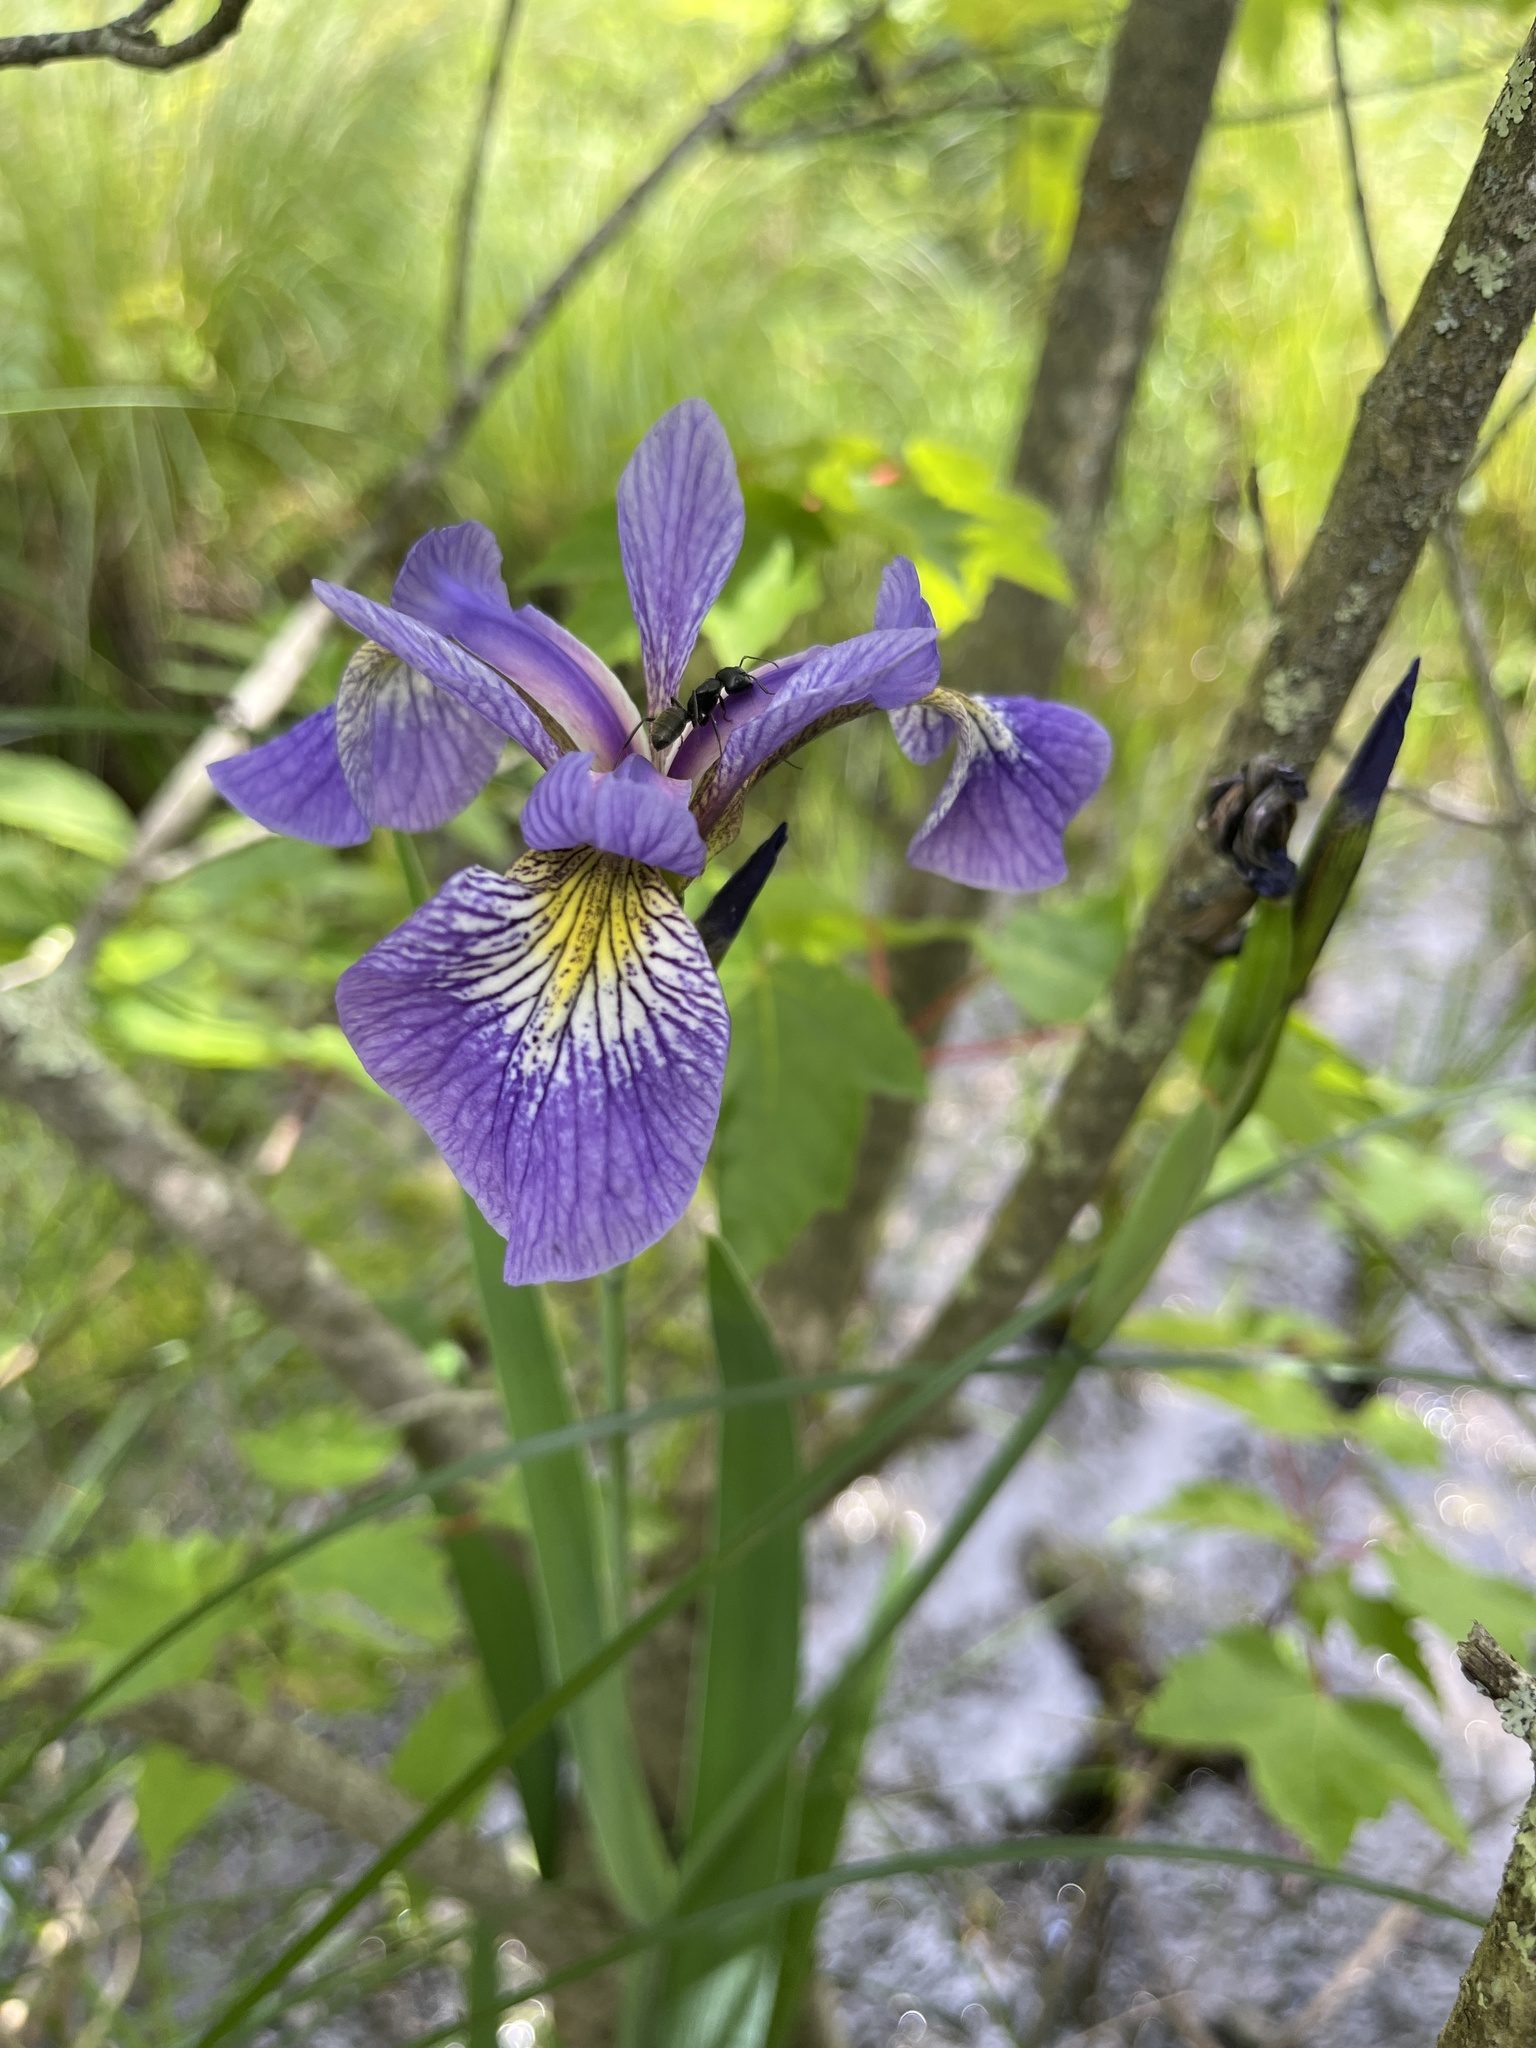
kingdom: Plantae
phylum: Tracheophyta
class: Liliopsida
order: Asparagales
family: Iridaceae
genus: Iris
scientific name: Iris versicolor
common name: Purple iris
